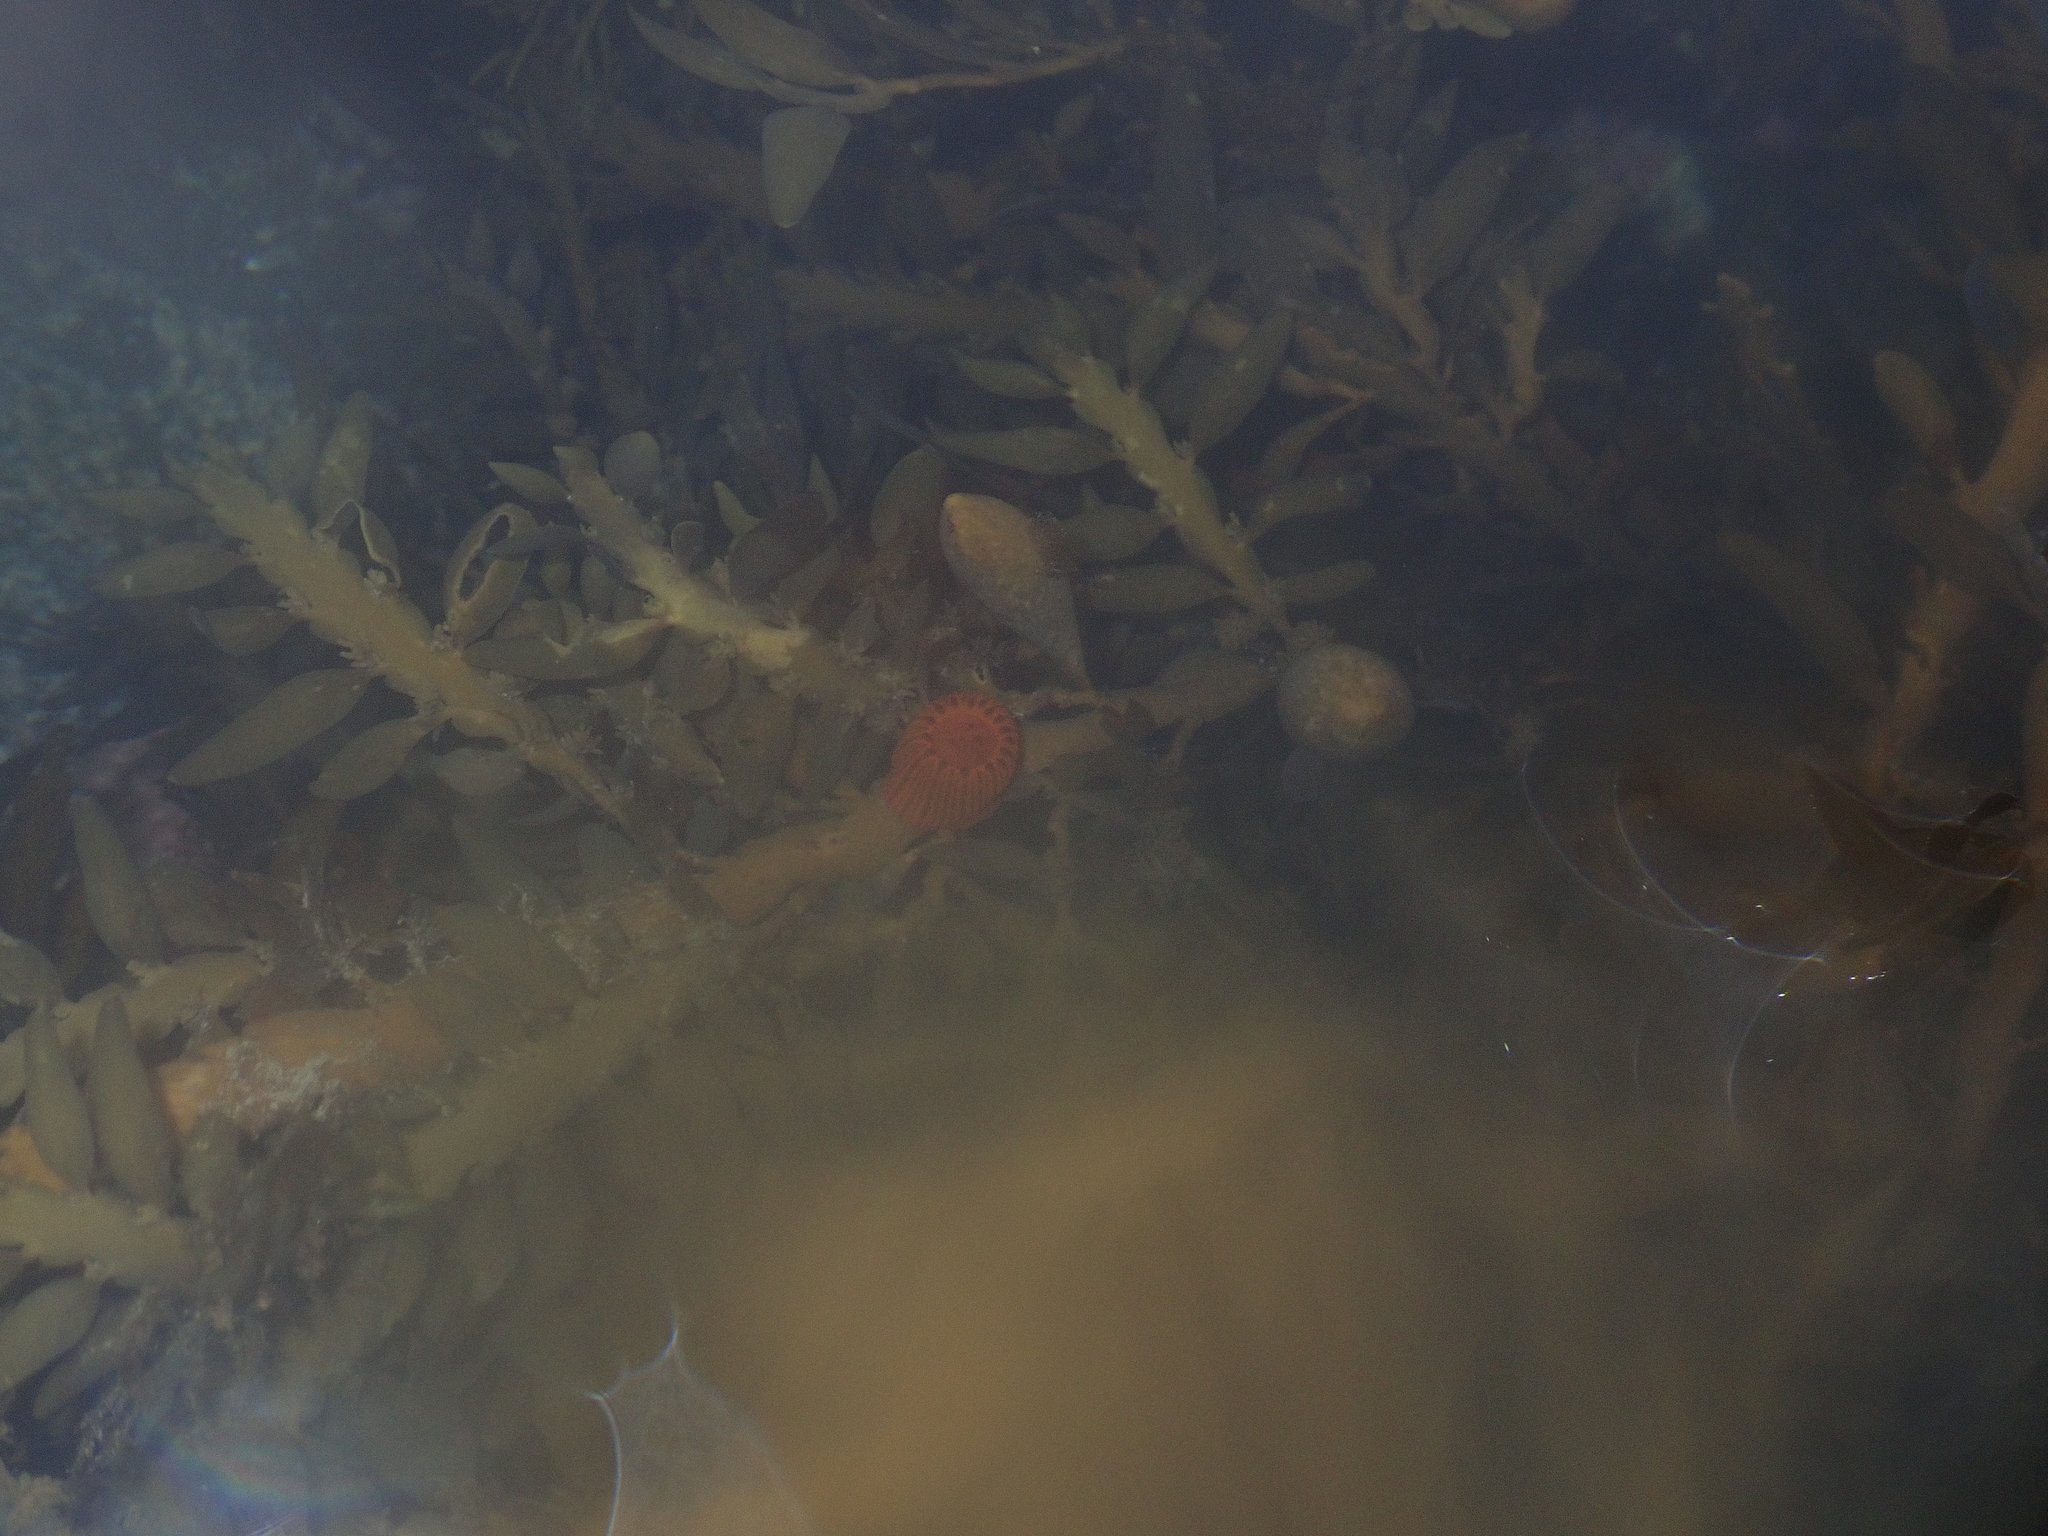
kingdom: Animalia
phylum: Cnidaria
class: Anthozoa
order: Actiniaria
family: Actiniidae
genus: Epiactis
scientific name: Epiactis
